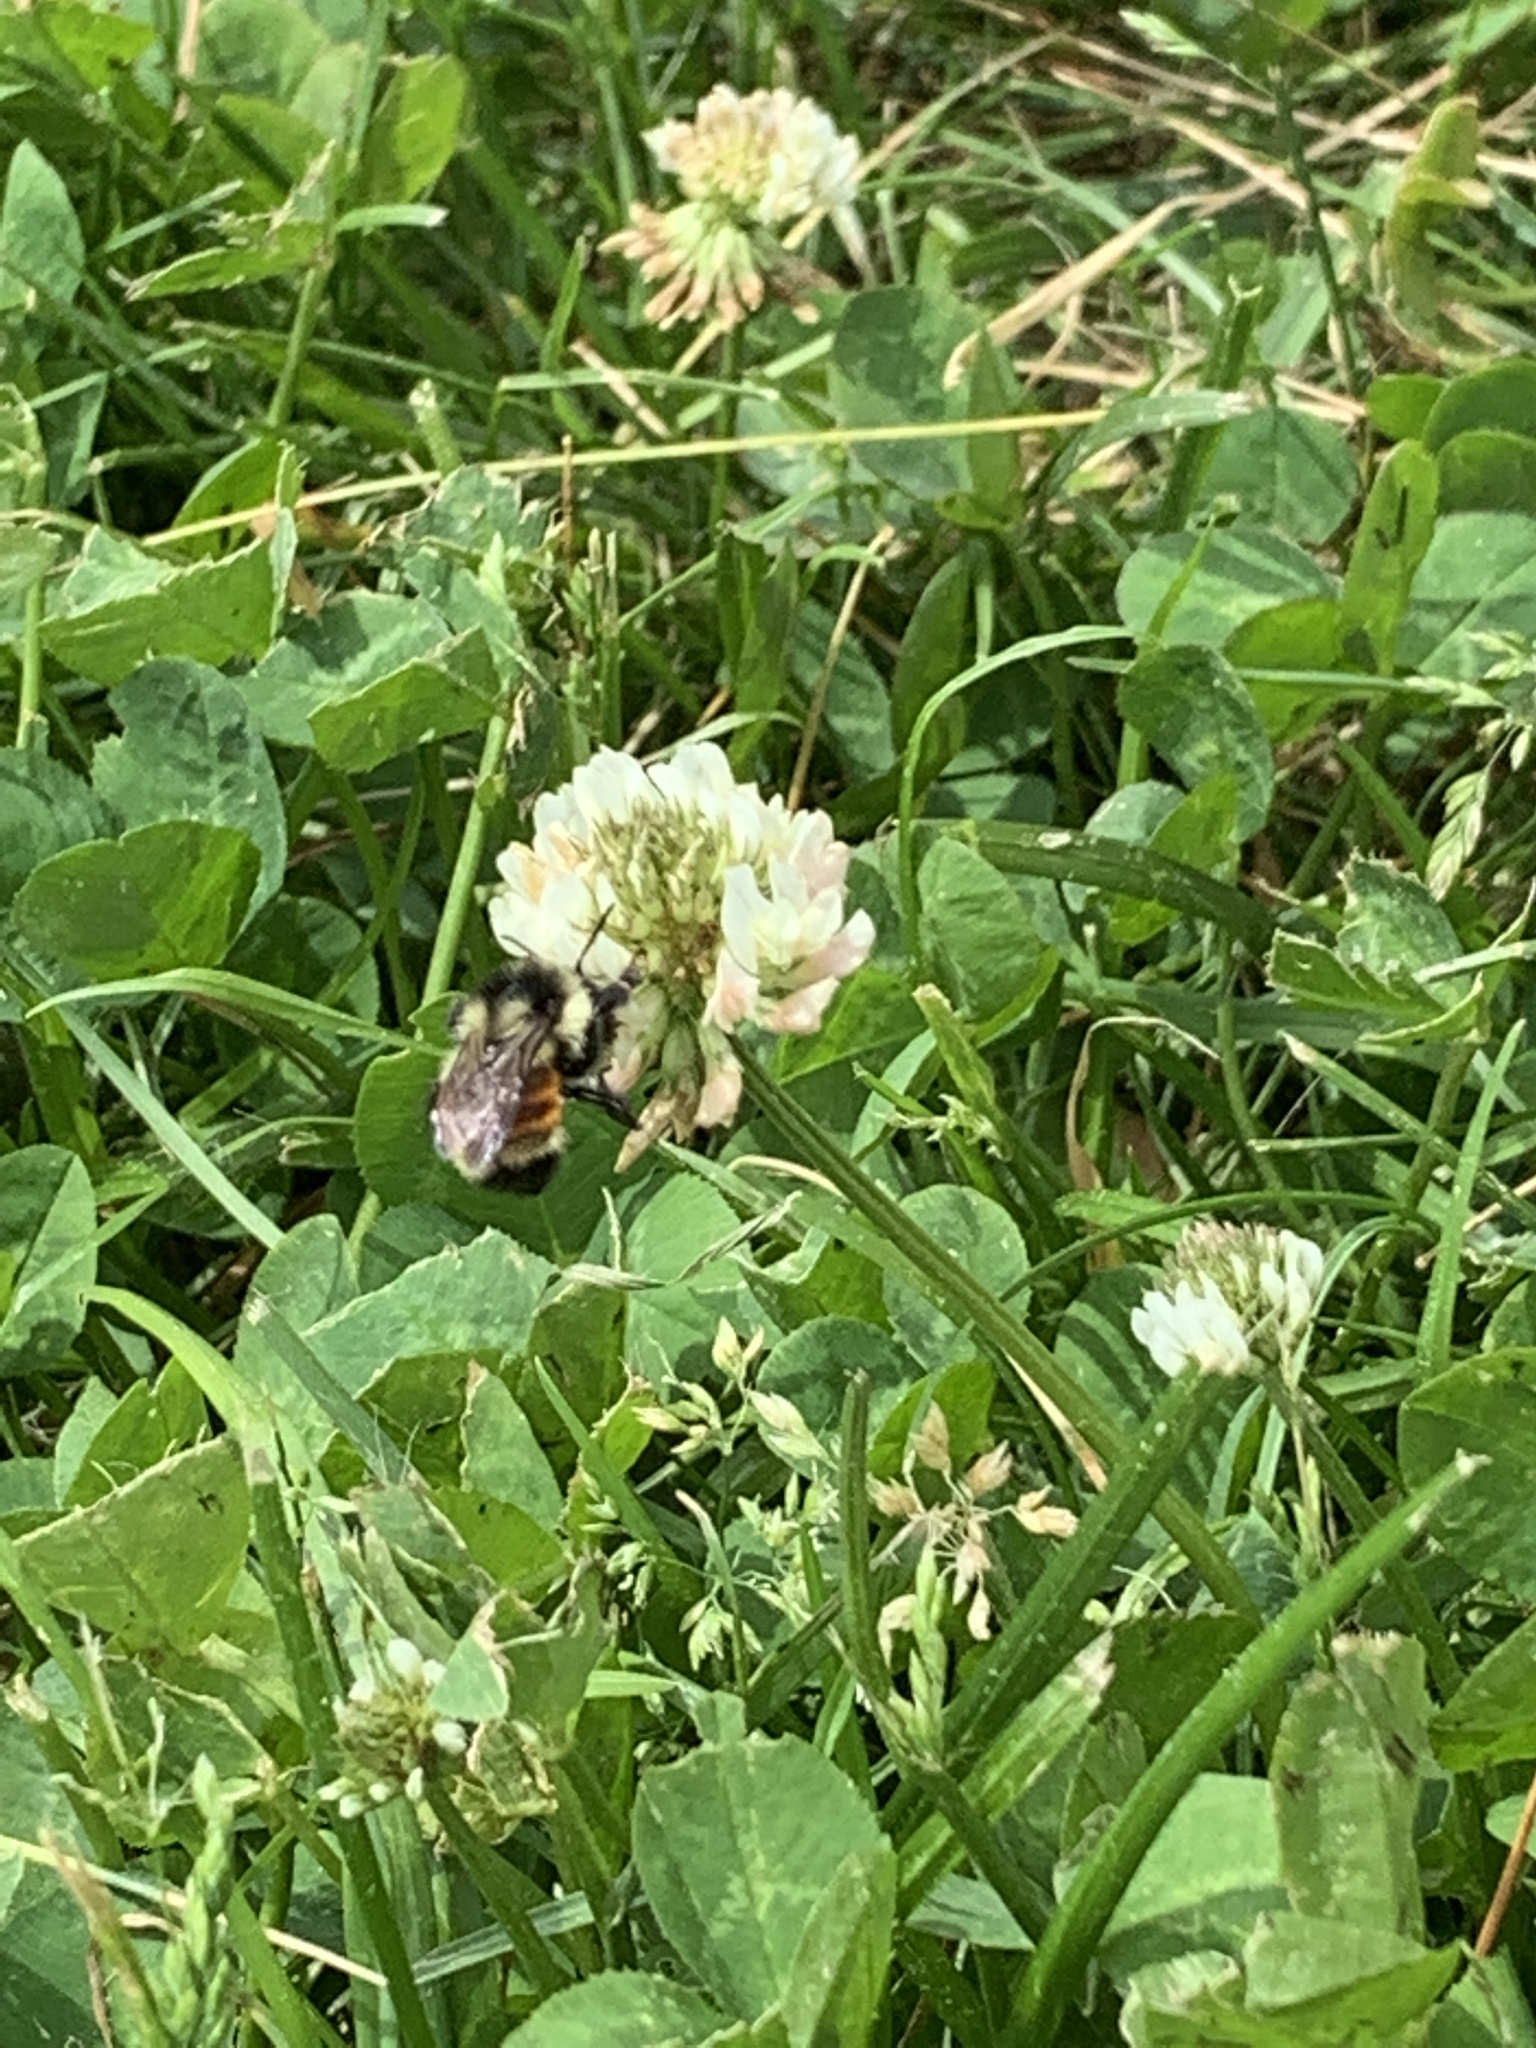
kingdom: Animalia
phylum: Arthropoda
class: Insecta
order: Hymenoptera
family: Apidae
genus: Bombus
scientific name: Bombus ternarius
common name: Tri-colored bumble bee
